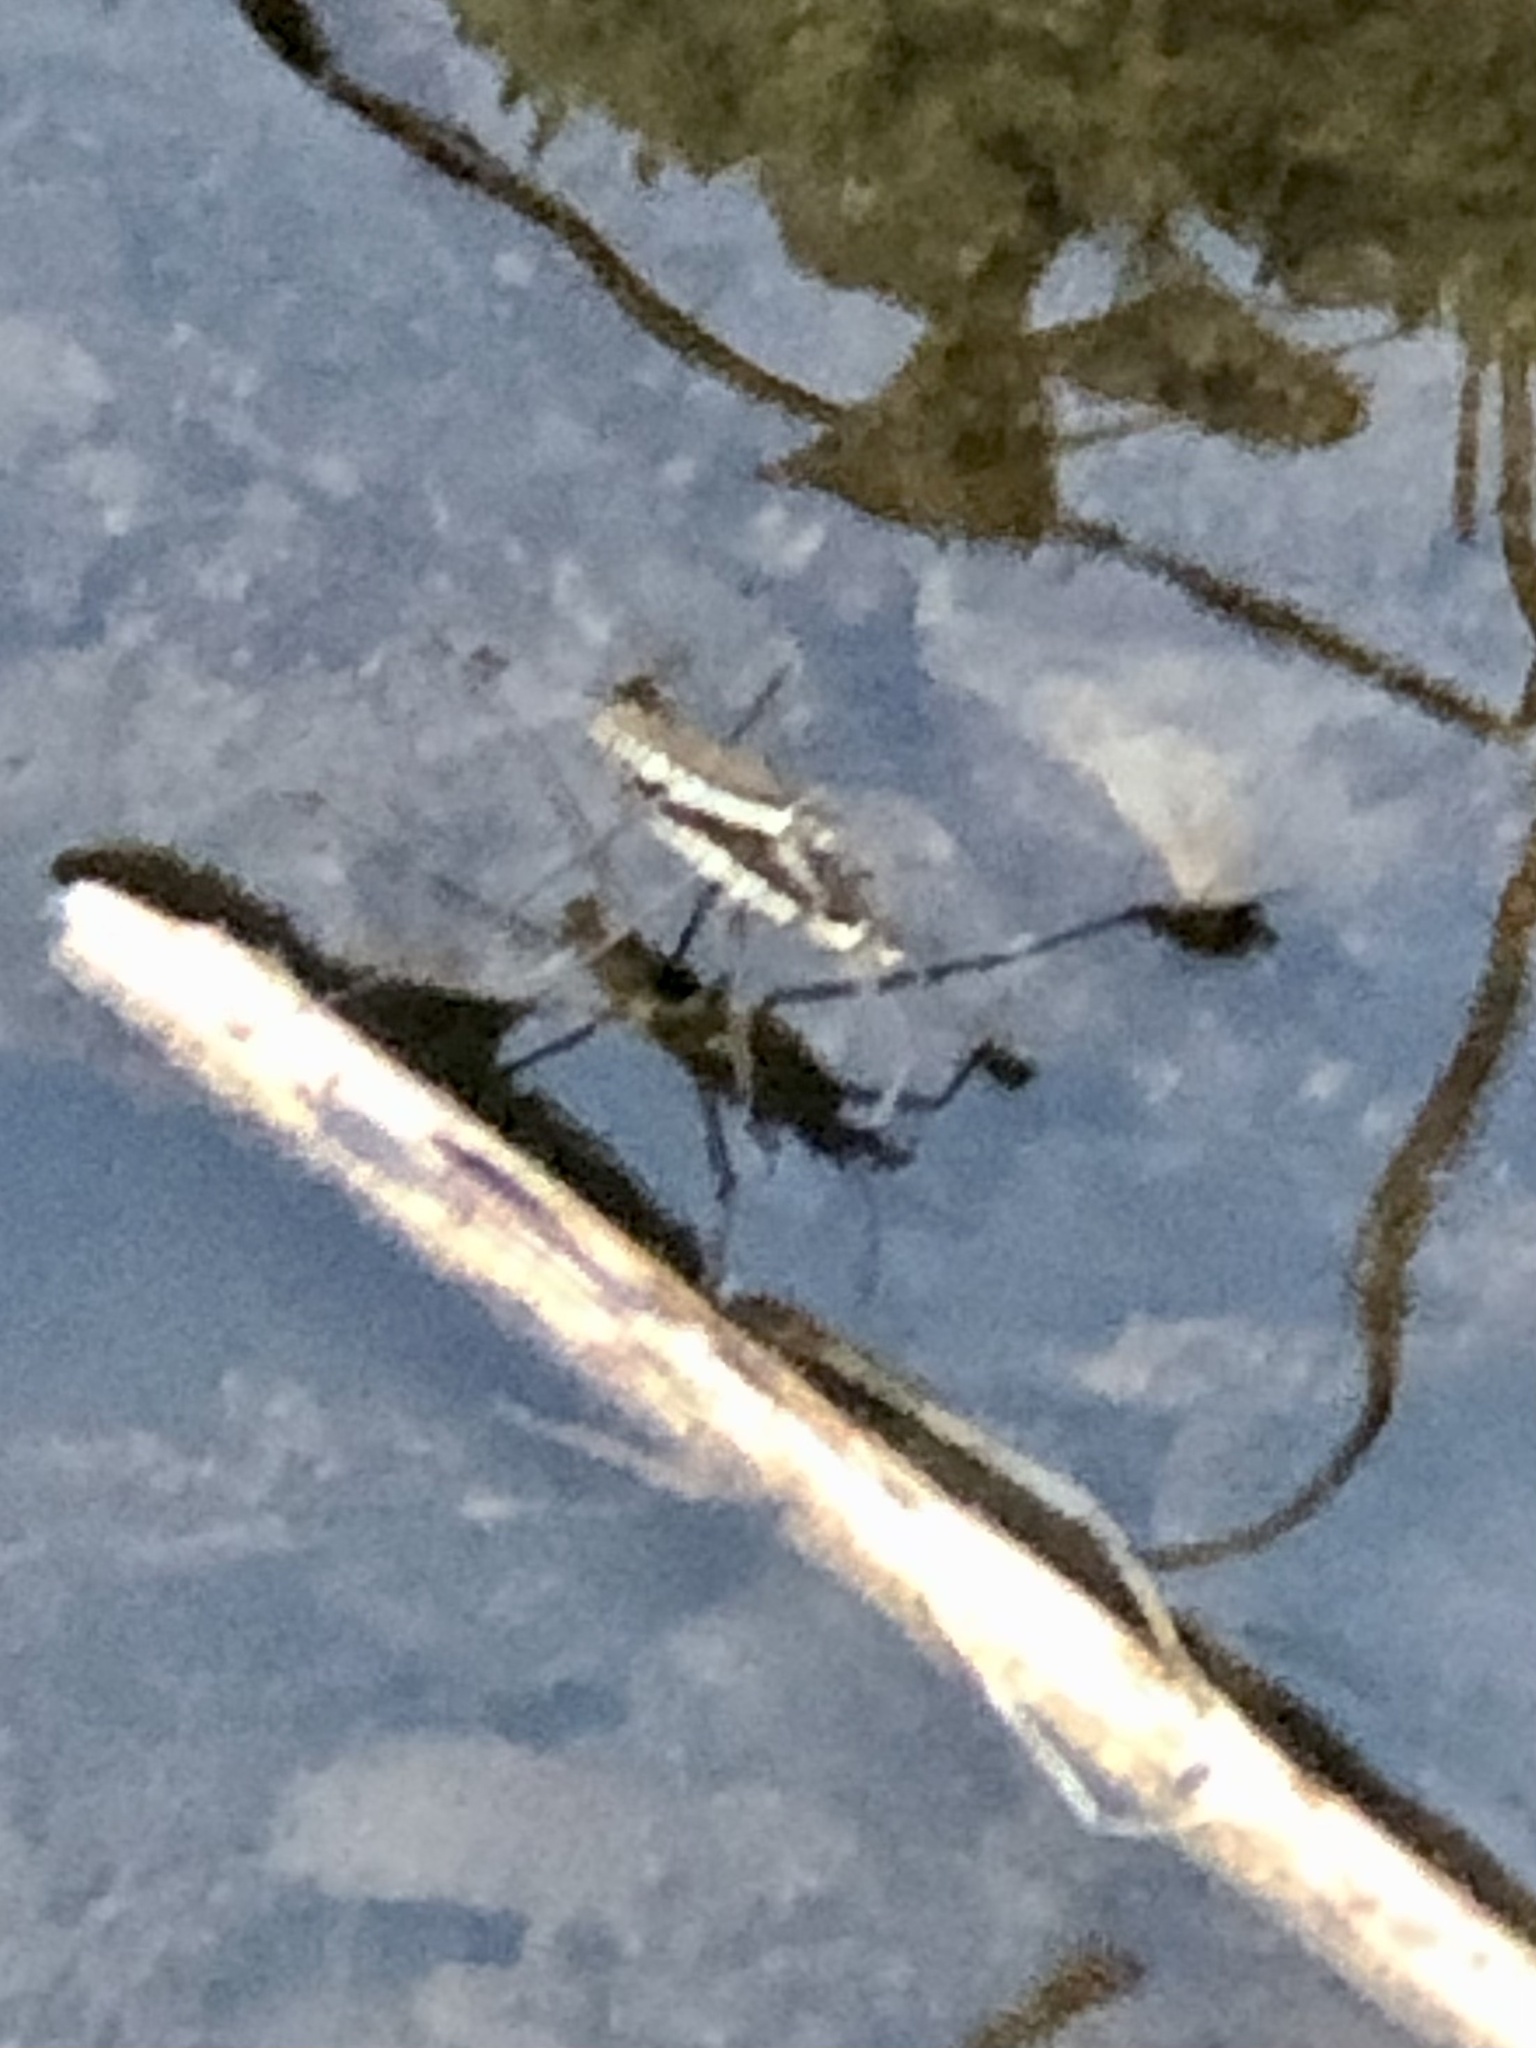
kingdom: Animalia
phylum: Arthropoda
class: Insecta
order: Hemiptera
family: Gerridae
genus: Aquarius
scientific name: Aquarius remigis
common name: Common water strider
